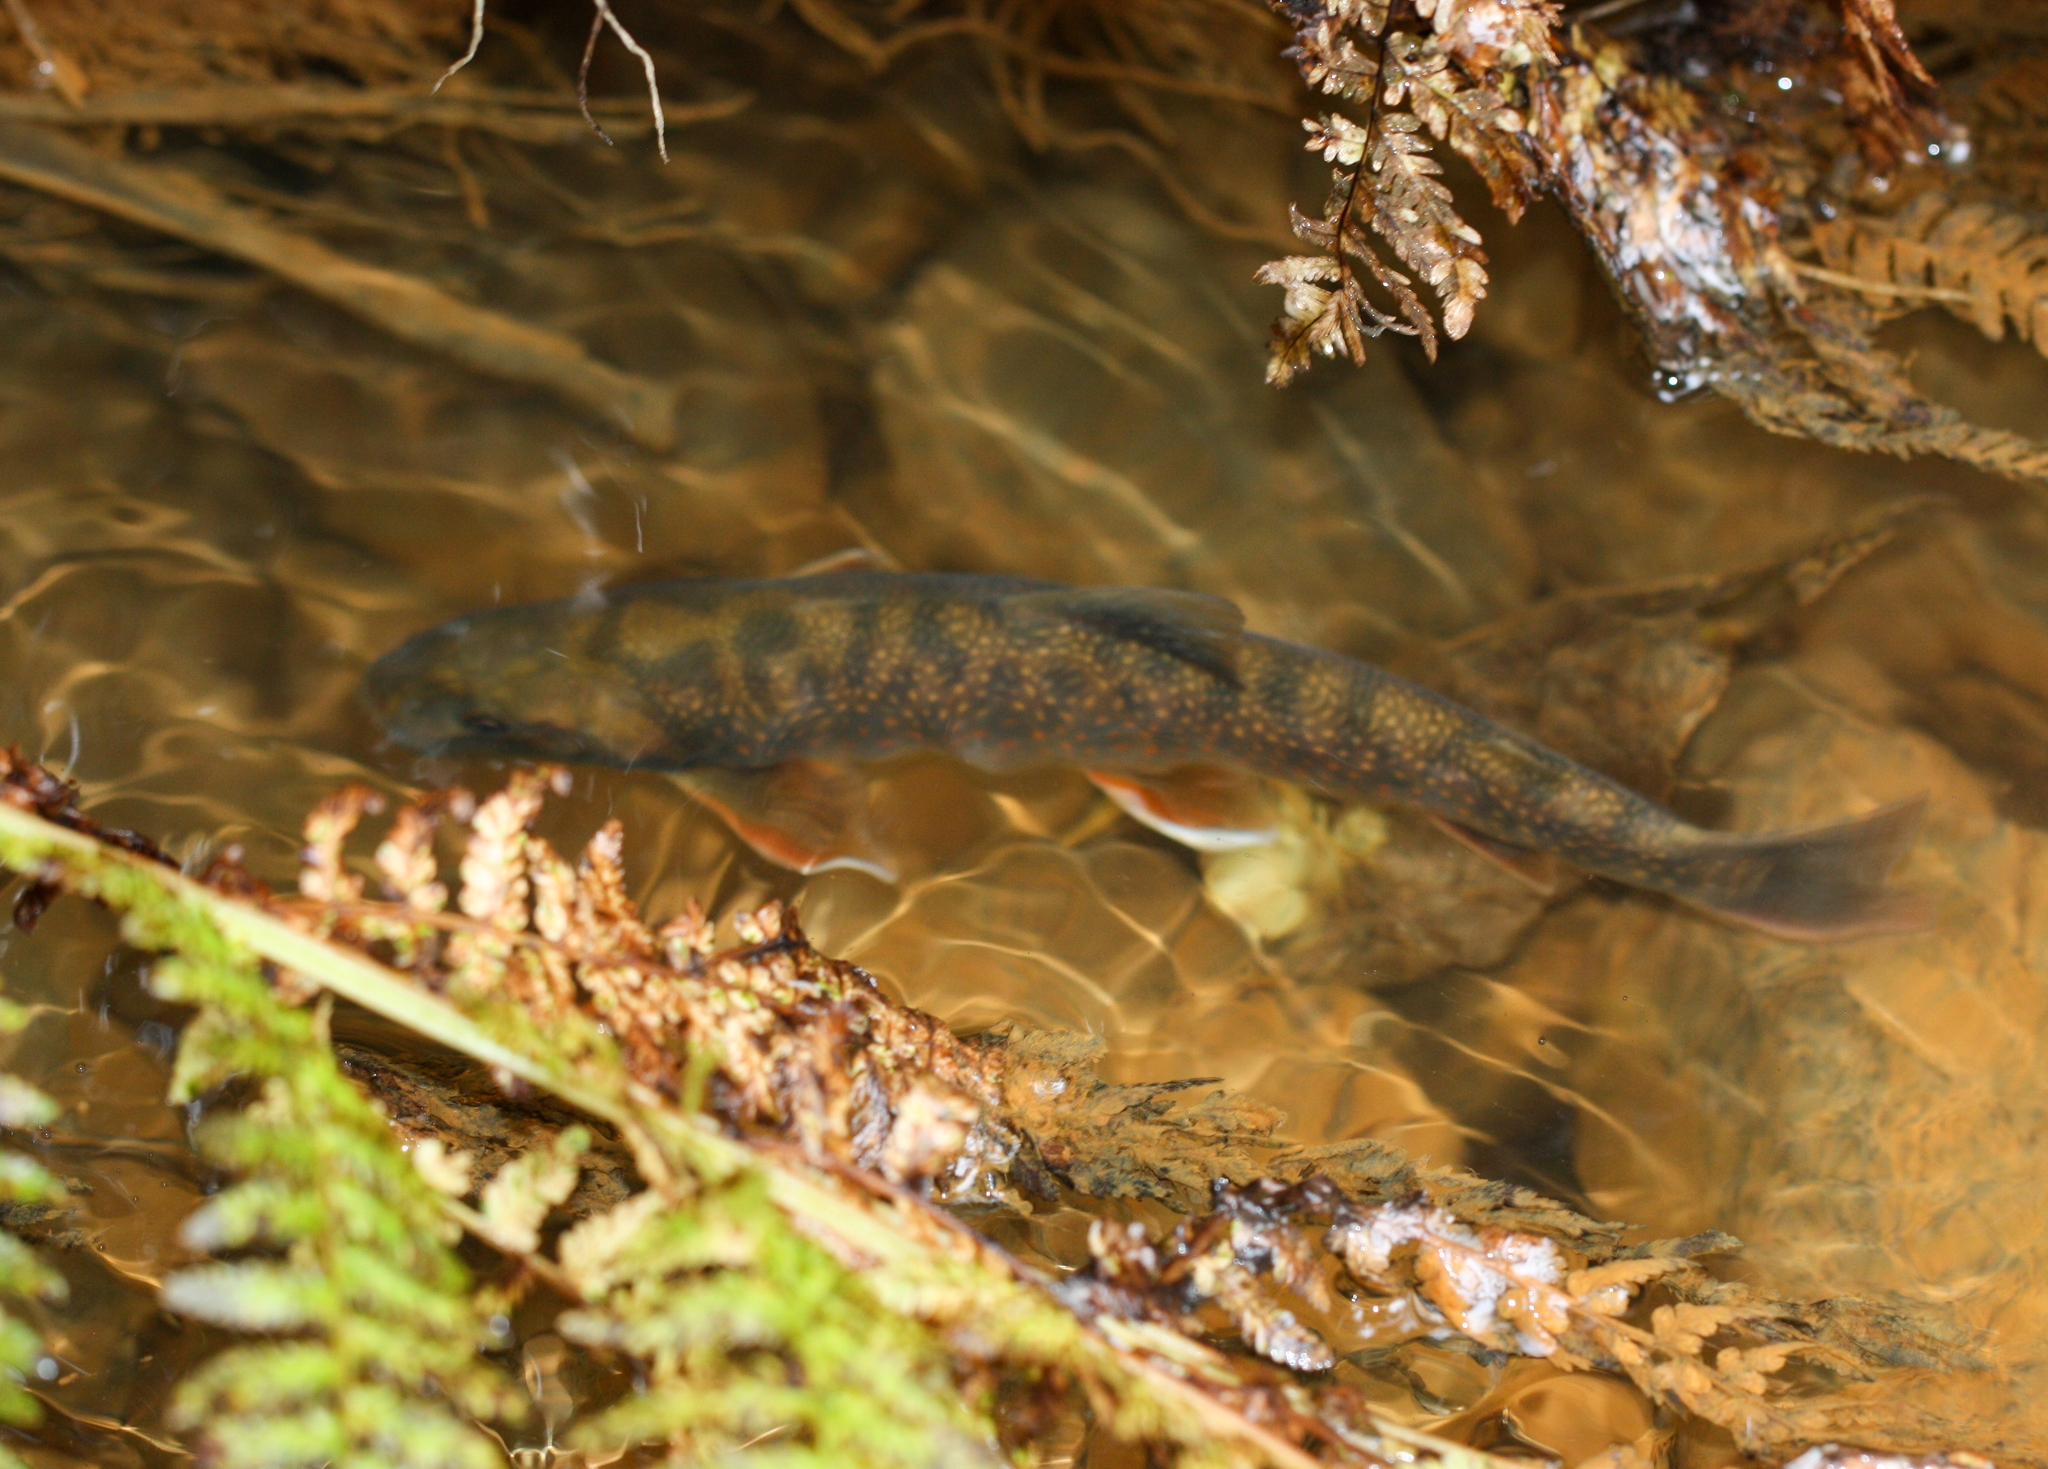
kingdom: Animalia
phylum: Chordata
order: Salmoniformes
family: Salmonidae
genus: Salvelinus
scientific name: Salvelinus malma
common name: Dolly varden charr
